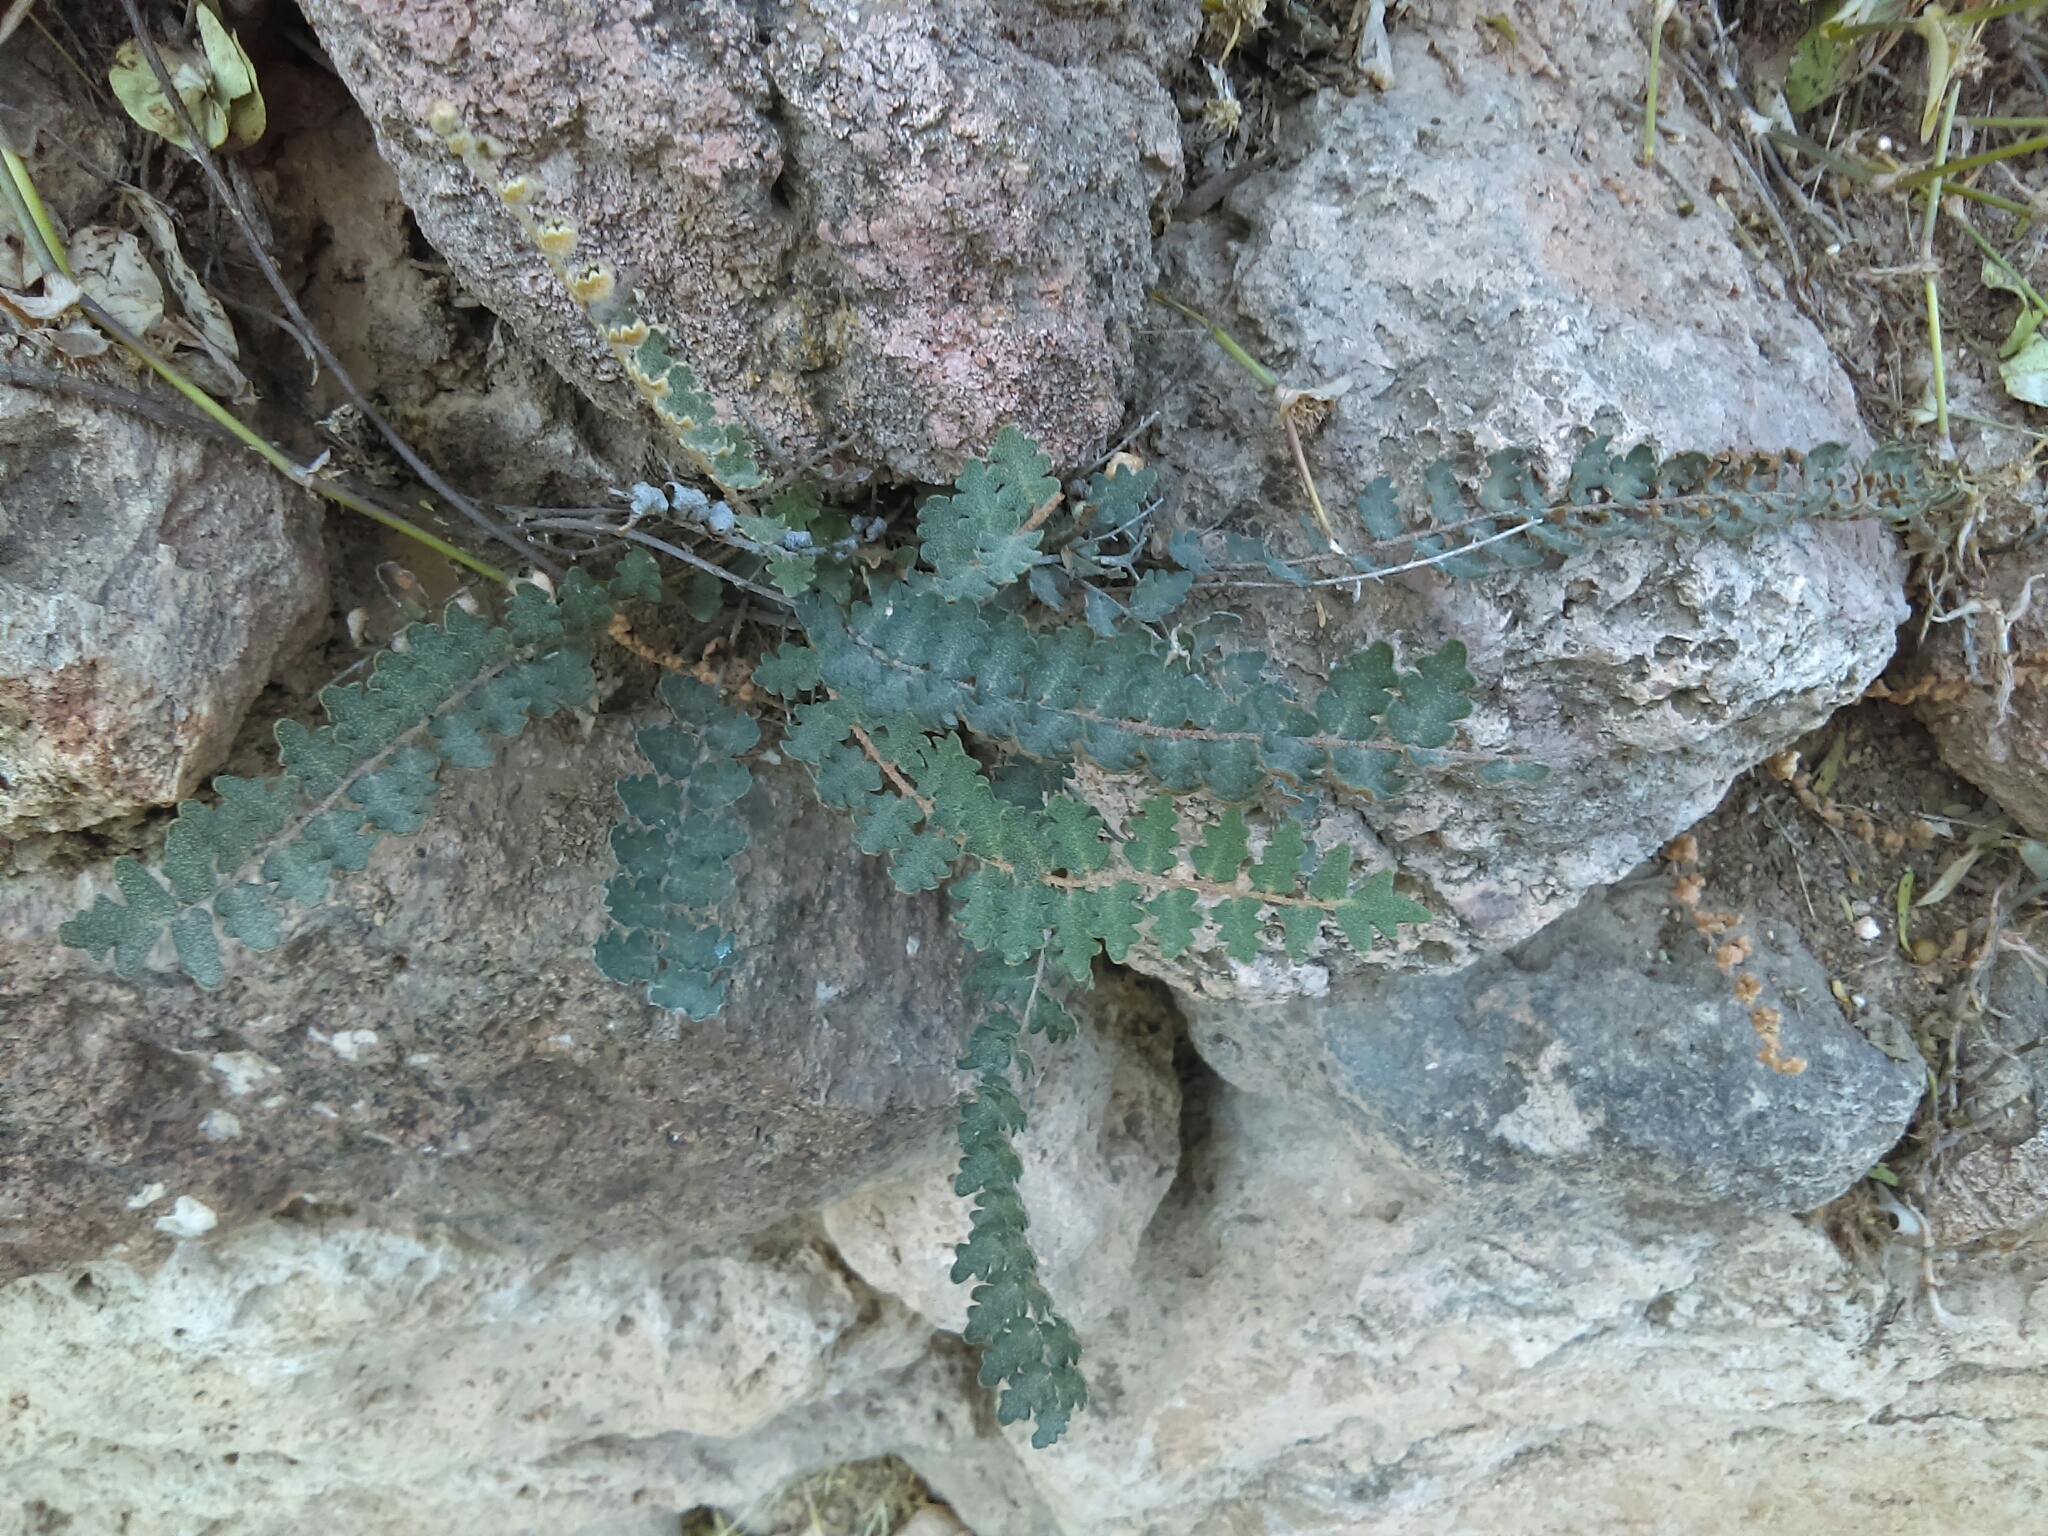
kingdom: Plantae
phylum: Tracheophyta
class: Polypodiopsida
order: Polypodiales
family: Pteridaceae
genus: Astrolepis
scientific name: Astrolepis sinuata
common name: Wavy scaly cloakfern
